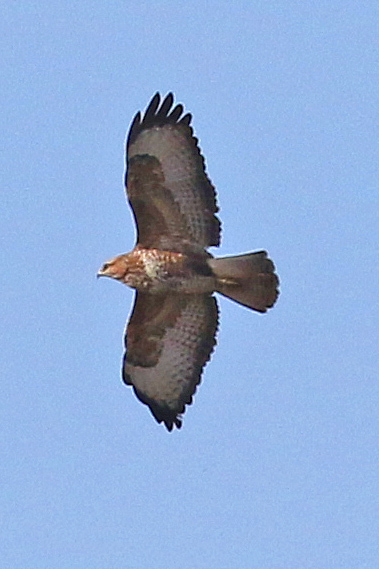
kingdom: Animalia
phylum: Chordata
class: Aves
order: Accipitriformes
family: Accipitridae
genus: Buteo
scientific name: Buteo buteo
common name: Common buzzard
